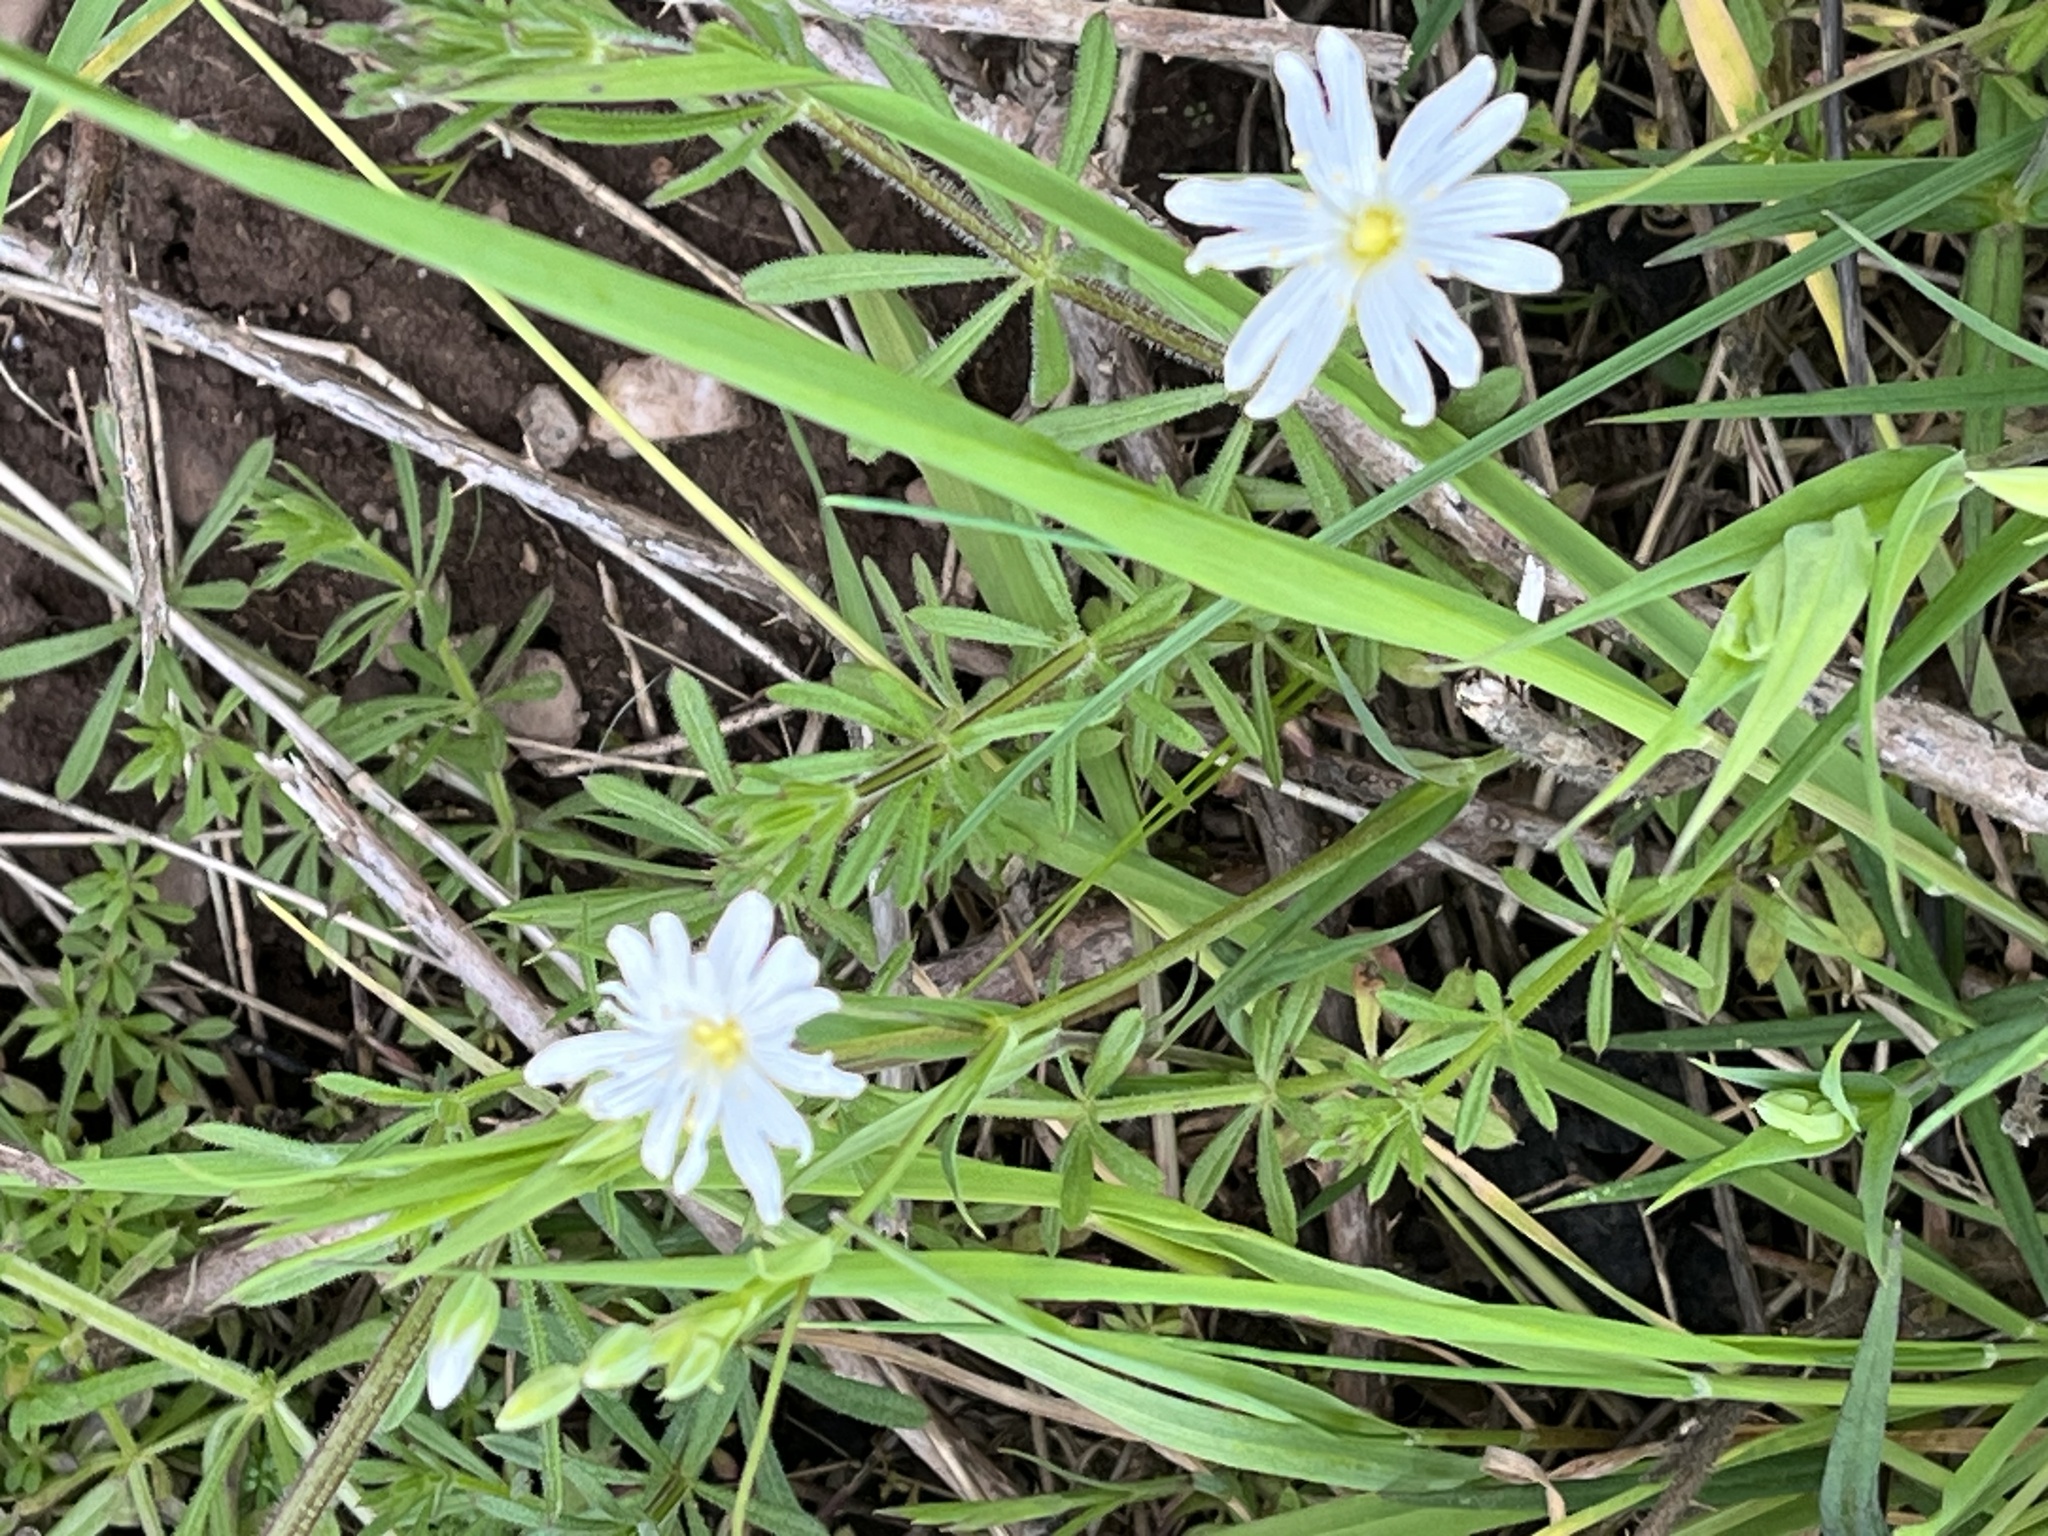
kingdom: Plantae
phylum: Tracheophyta
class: Magnoliopsida
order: Caryophyllales
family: Caryophyllaceae
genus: Rabelera
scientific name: Rabelera holostea
